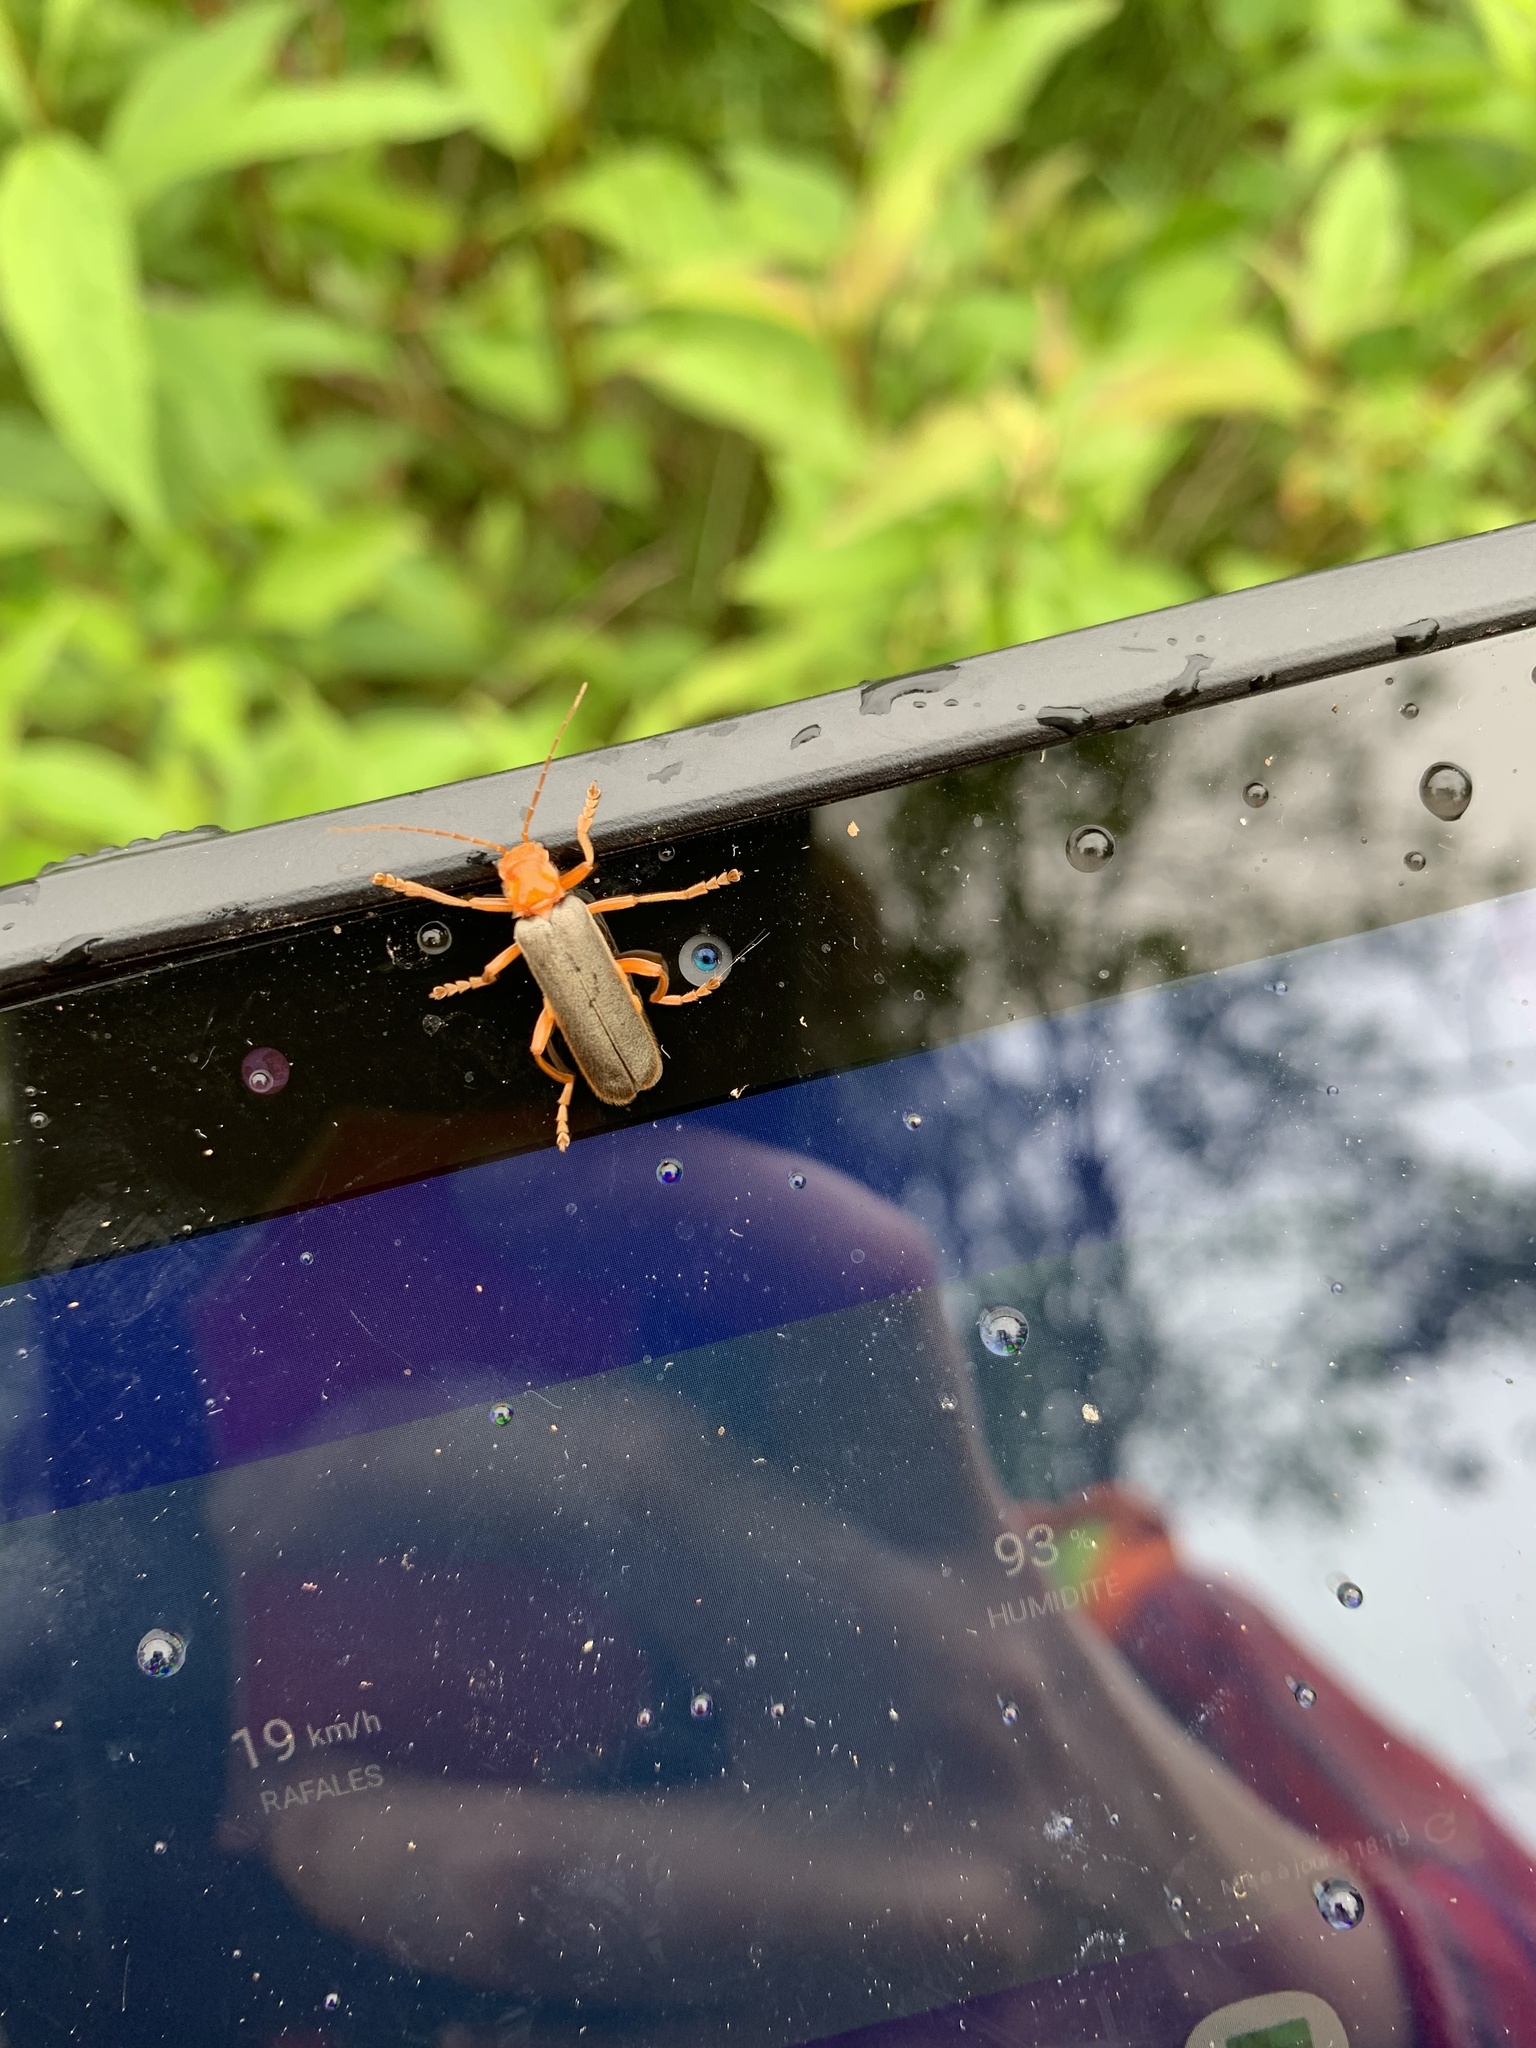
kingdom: Animalia
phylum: Arthropoda
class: Insecta
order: Coleoptera
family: Cantharidae
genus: Pacificanthia
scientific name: Pacificanthia rotundicollis
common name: Brown leatherwing beetle
